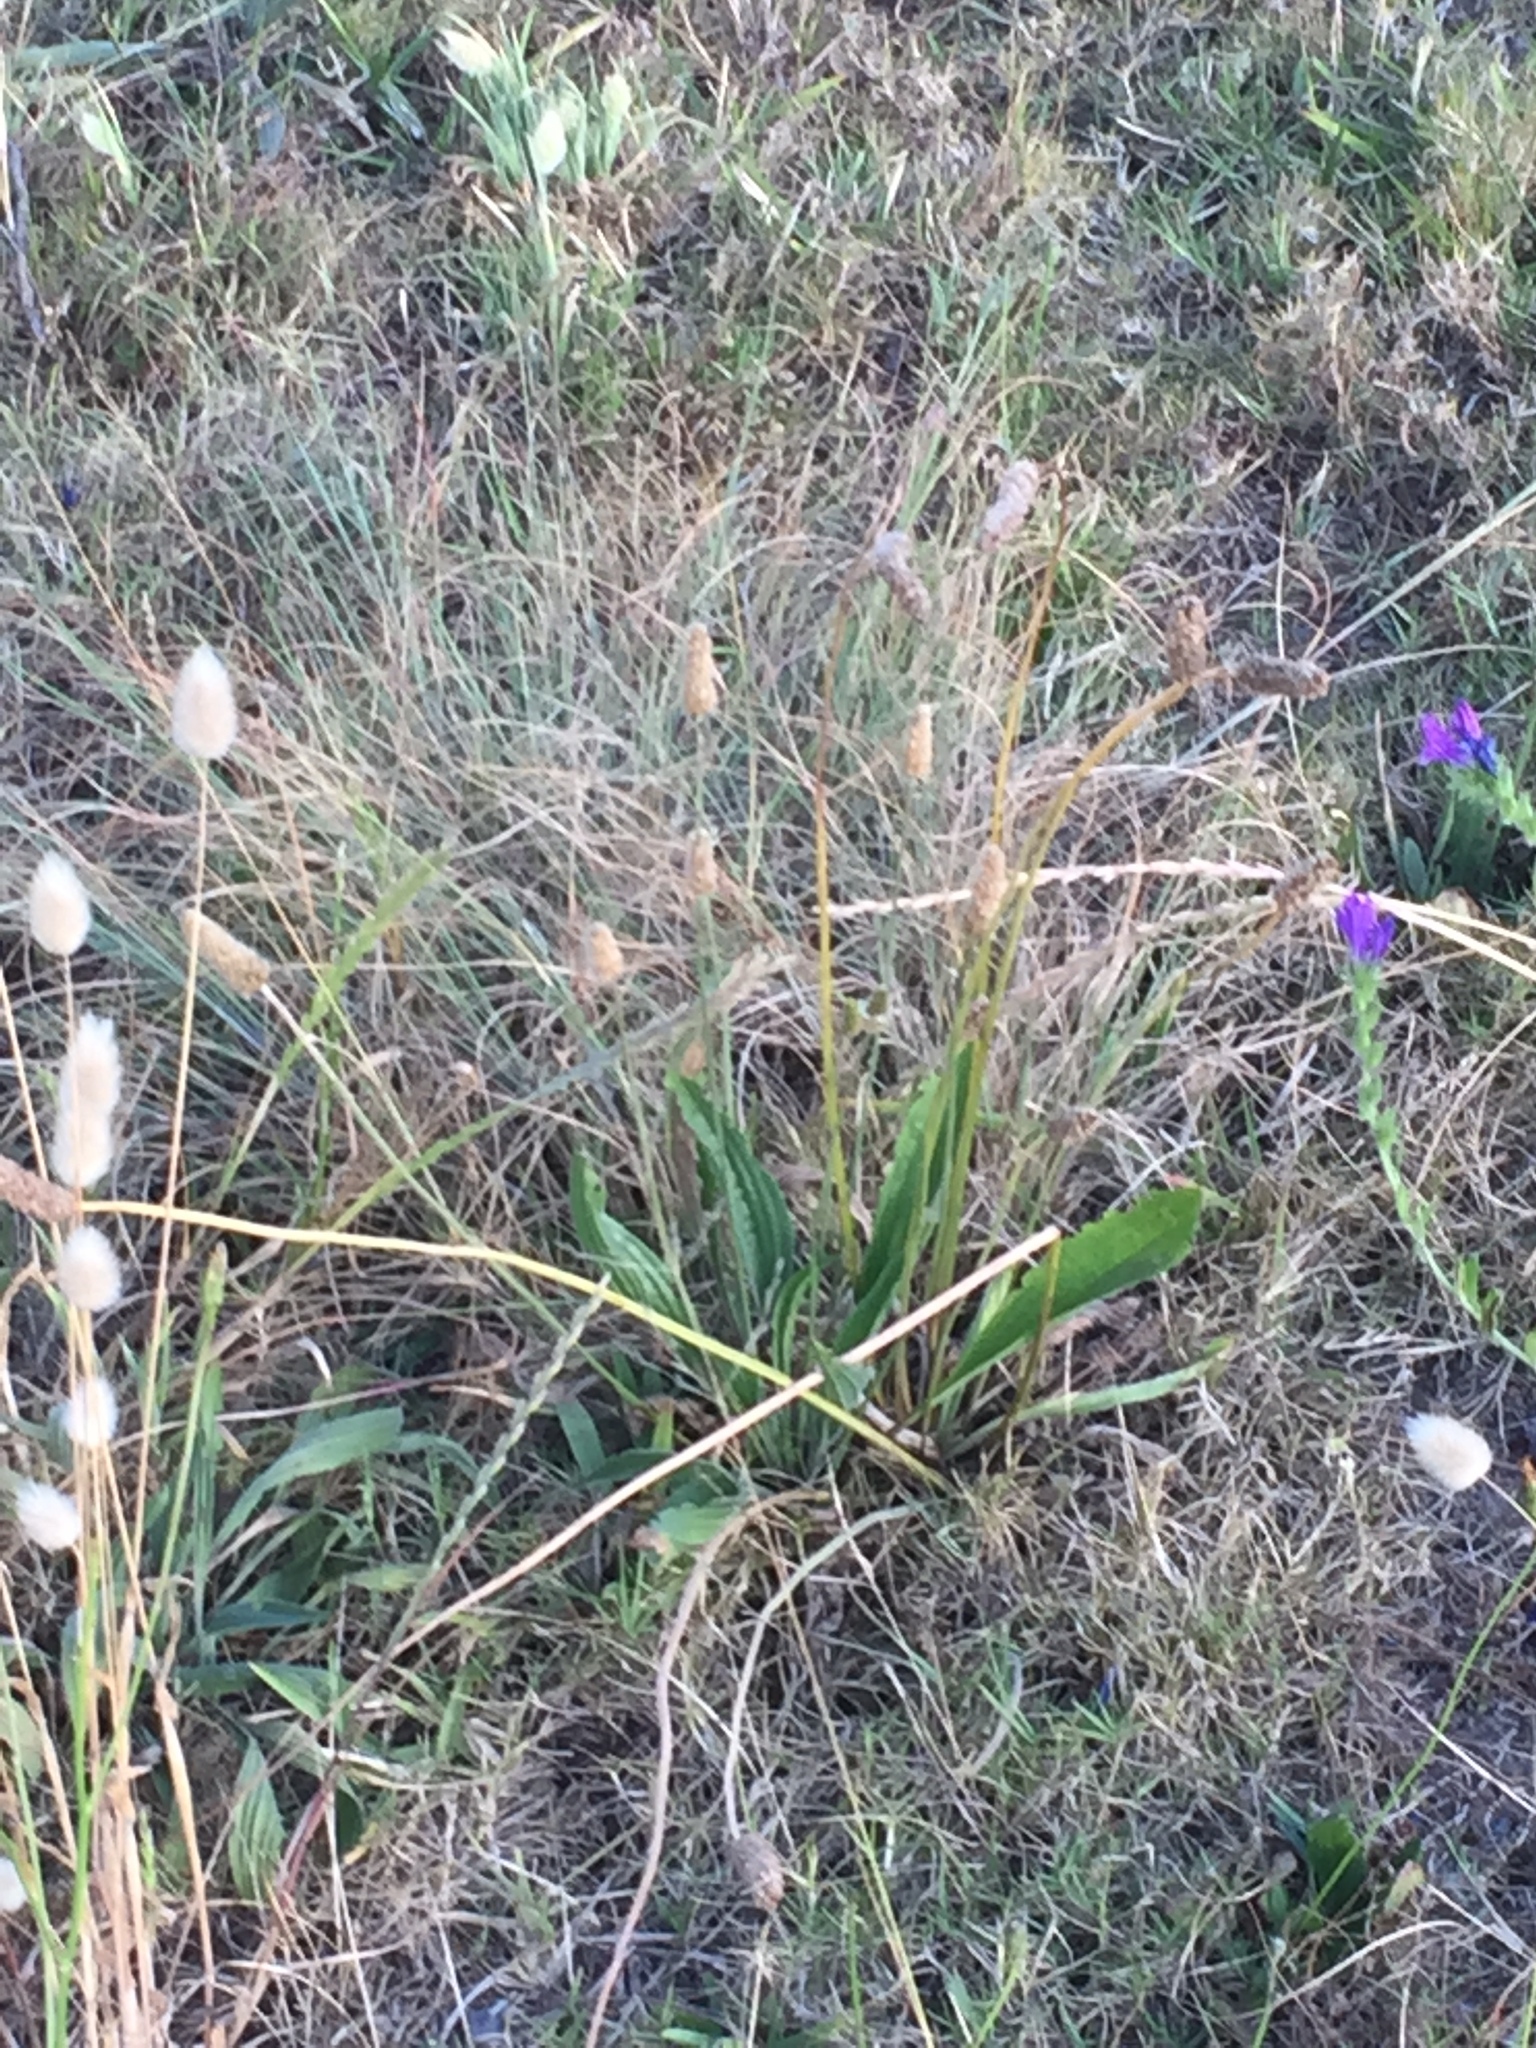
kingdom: Plantae
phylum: Tracheophyta
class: Magnoliopsida
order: Lamiales
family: Plantaginaceae
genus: Plantago
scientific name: Plantago lanceolata
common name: Ribwort plantain
